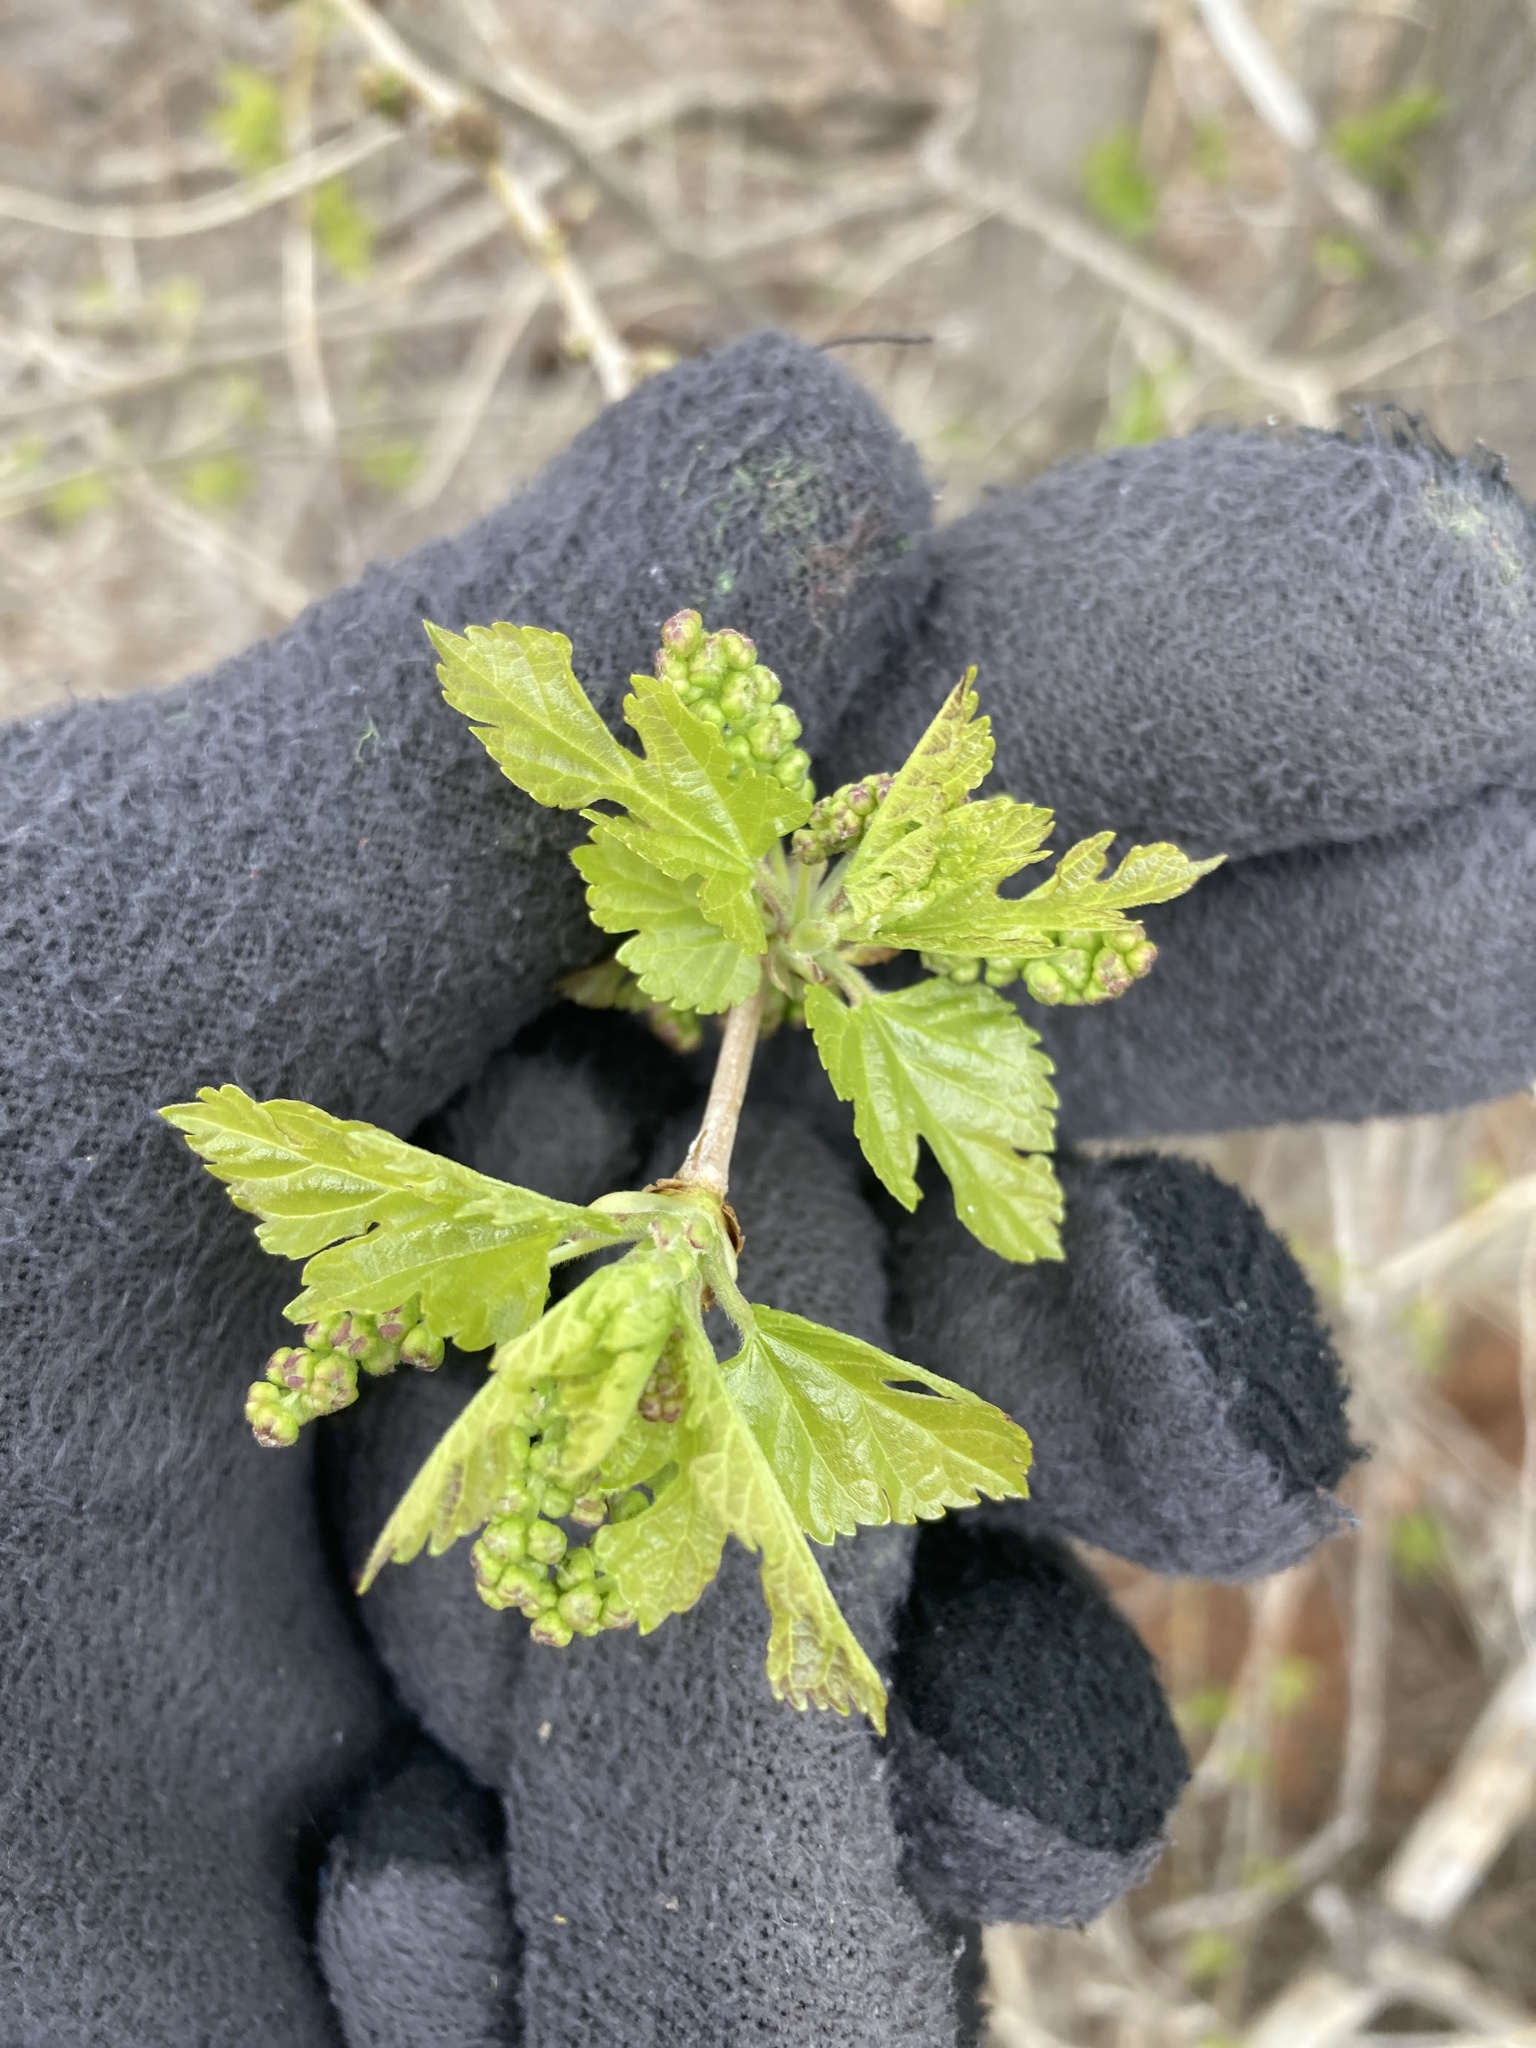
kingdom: Plantae
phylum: Tracheophyta
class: Magnoliopsida
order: Rosales
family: Moraceae
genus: Morus
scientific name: Morus alba
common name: White mulberry
